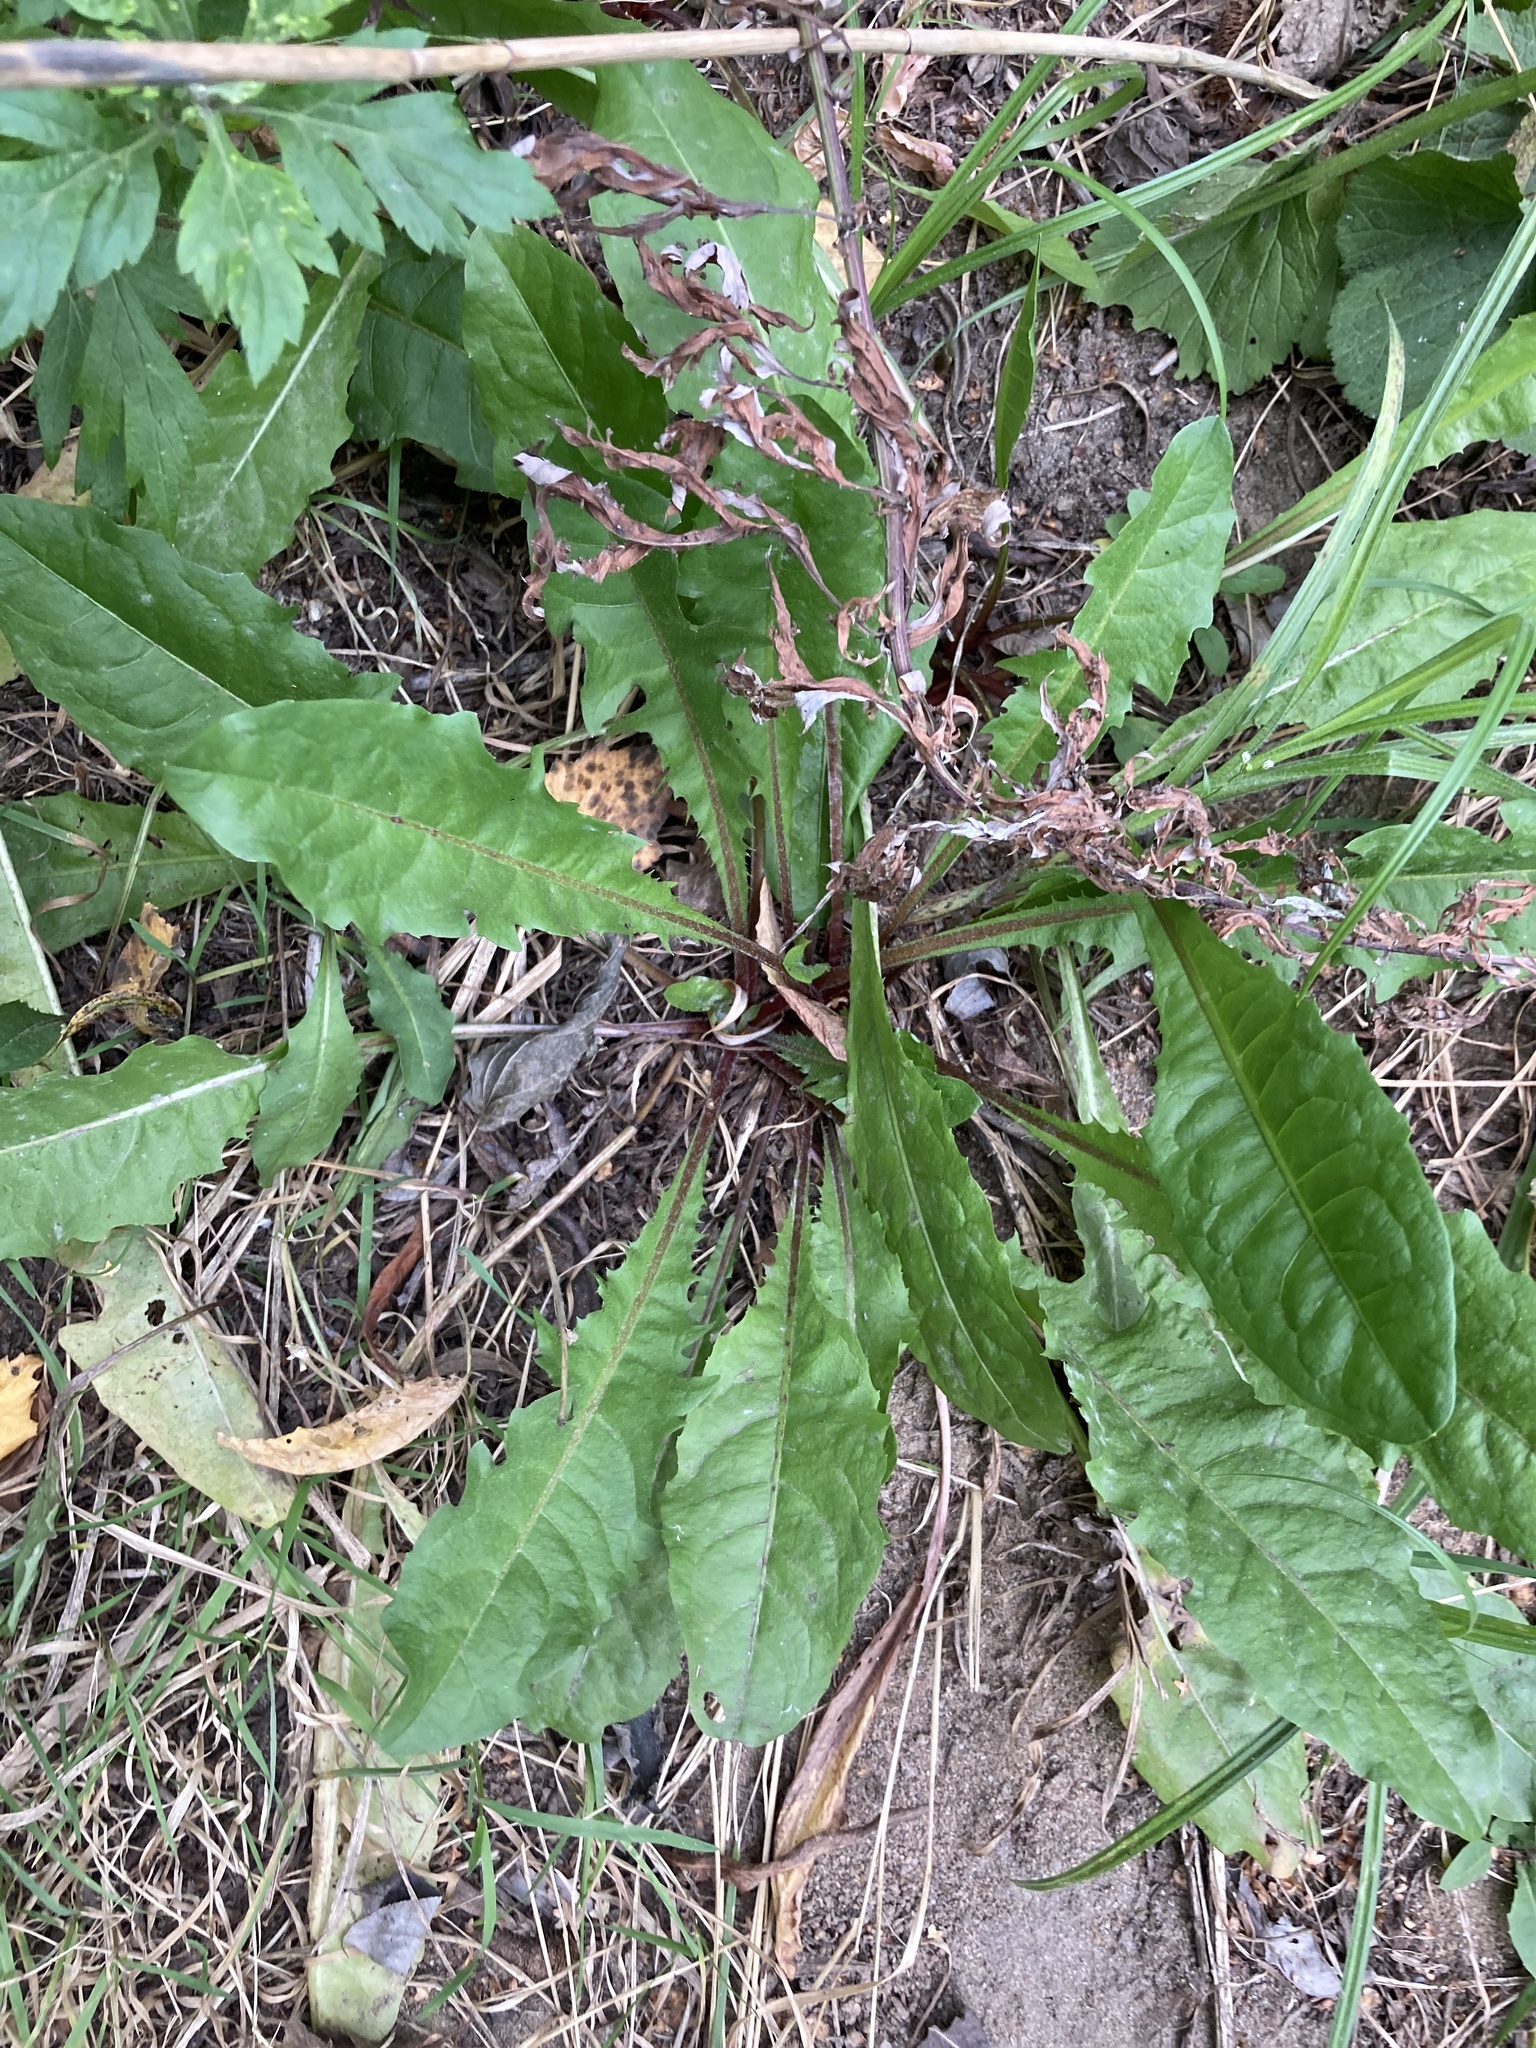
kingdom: Plantae
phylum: Tracheophyta
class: Magnoliopsida
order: Asterales
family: Asteraceae
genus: Taraxacum
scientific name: Taraxacum officinale
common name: Common dandelion
